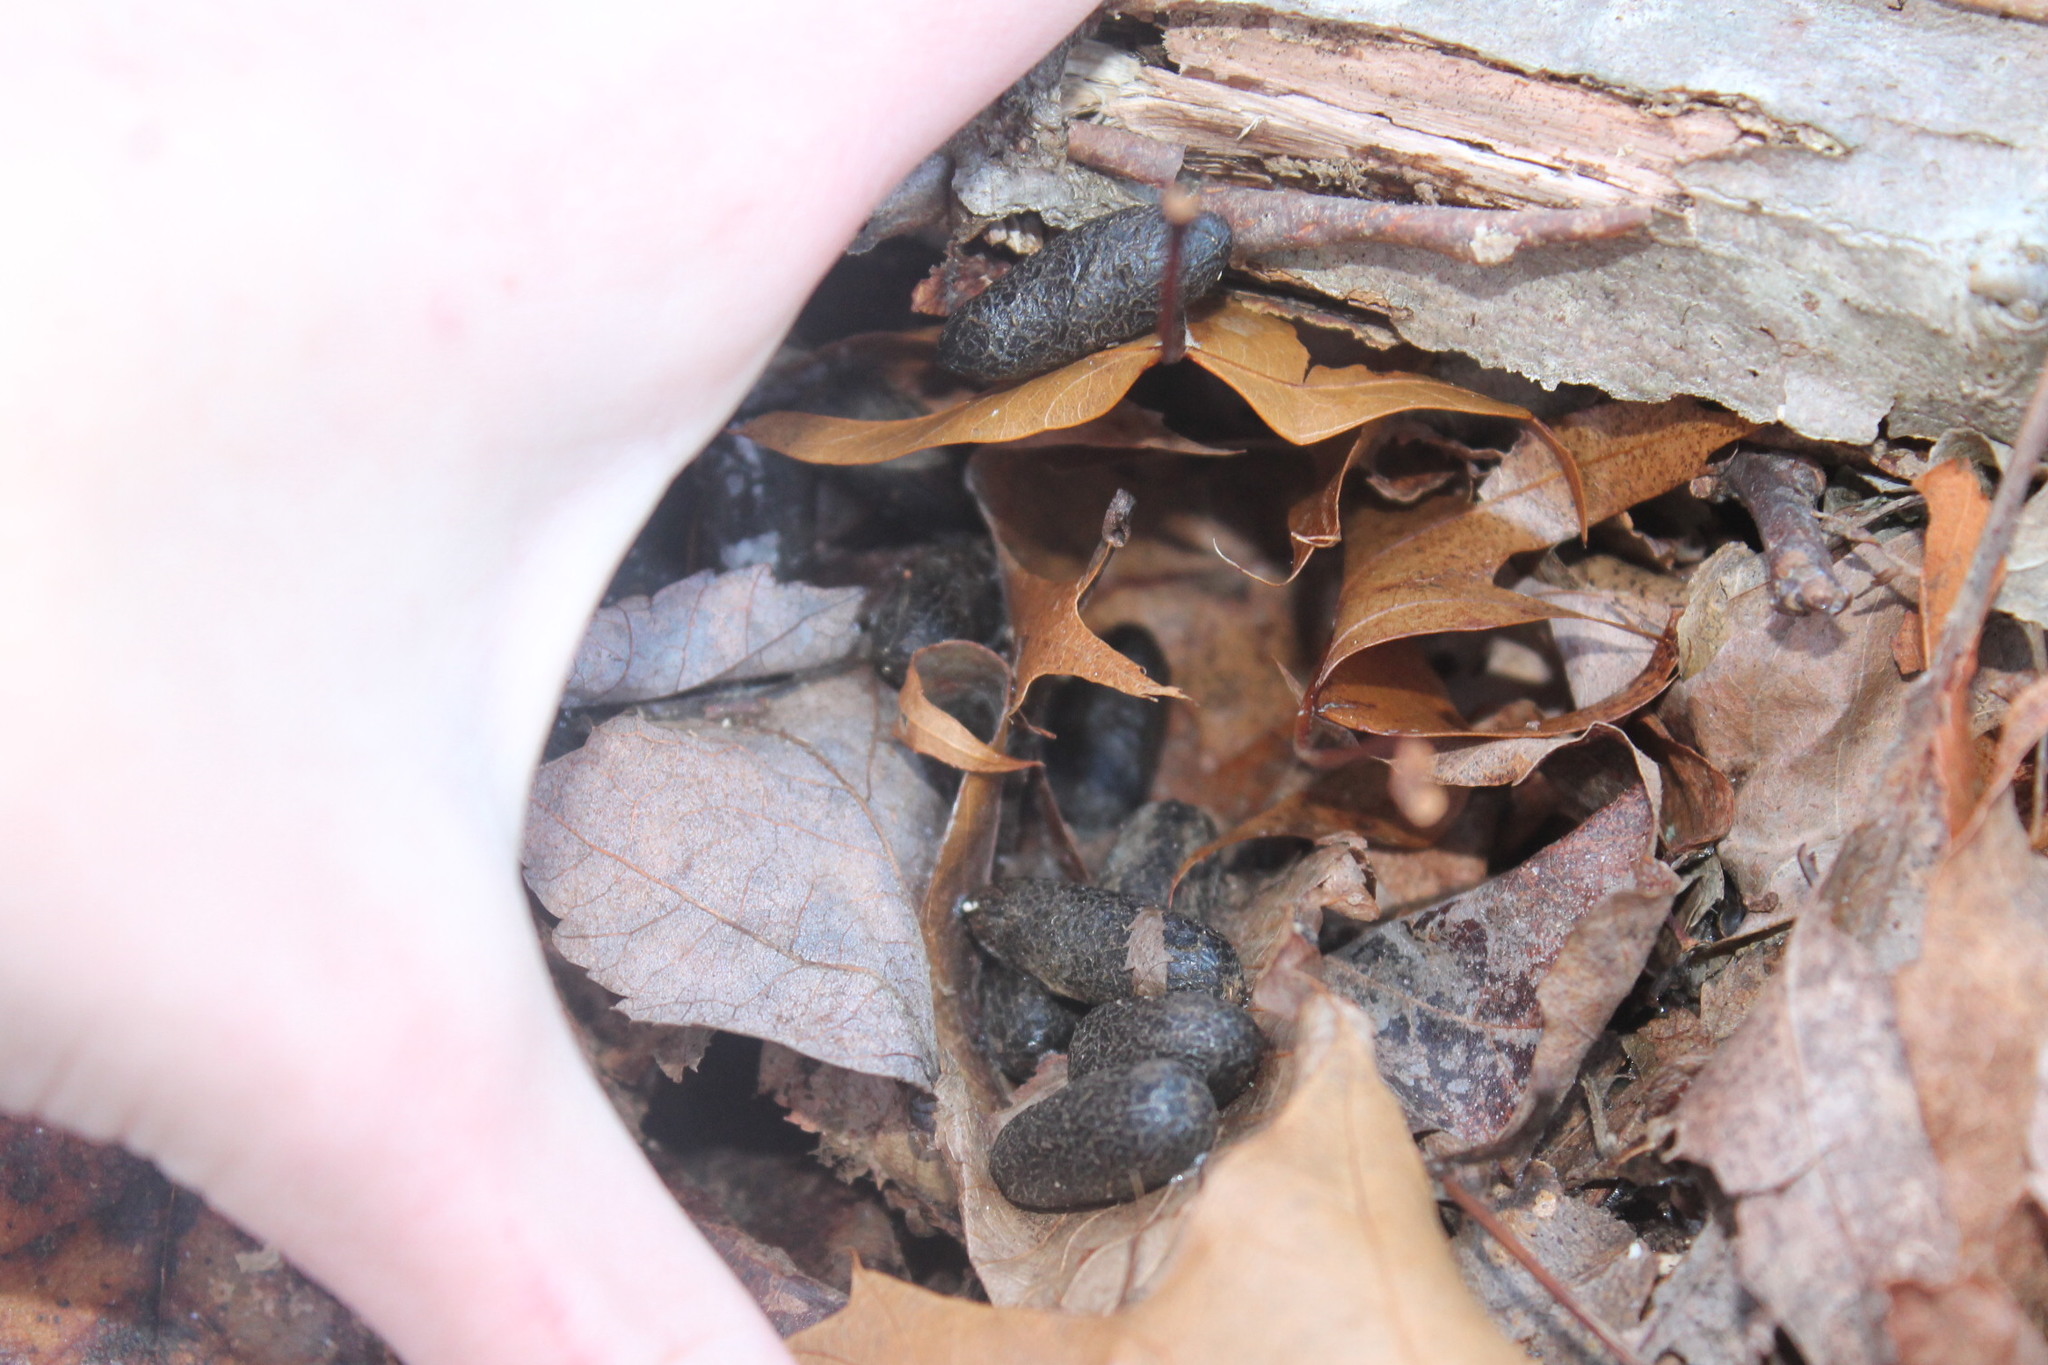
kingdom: Animalia
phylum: Chordata
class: Mammalia
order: Artiodactyla
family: Cervidae
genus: Odocoileus
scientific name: Odocoileus virginianus
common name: White-tailed deer
